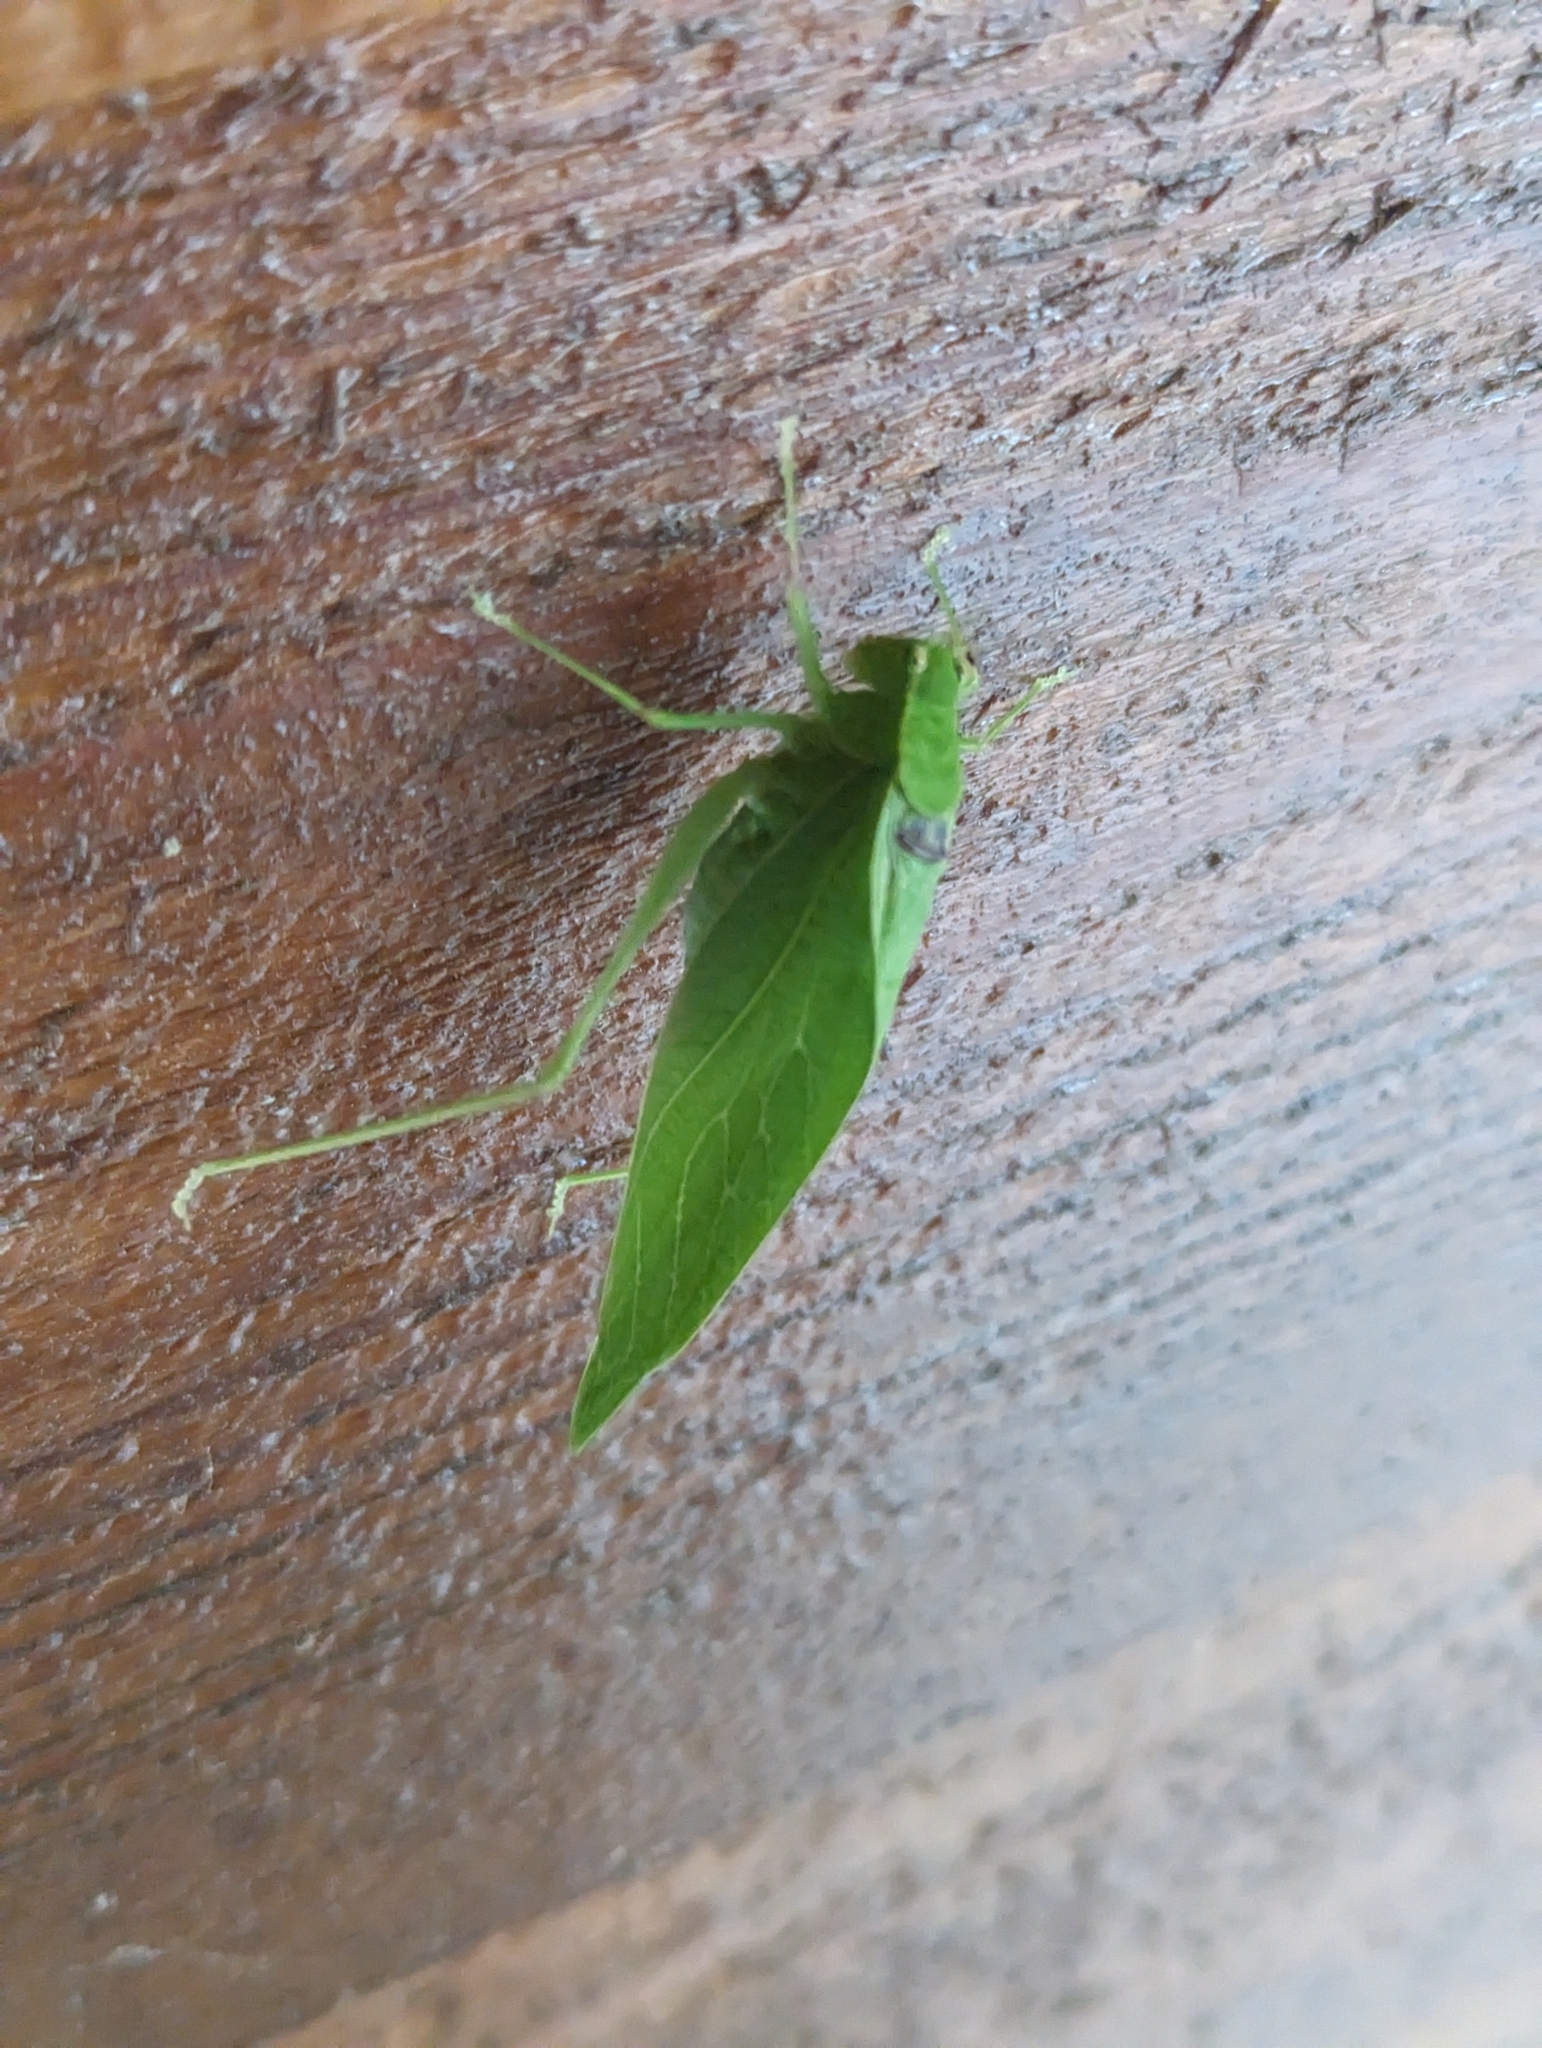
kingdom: Animalia
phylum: Arthropoda
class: Insecta
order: Orthoptera
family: Tettigoniidae
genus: Microcentrum
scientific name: Microcentrum retinerve
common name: Angular-winged katydid
